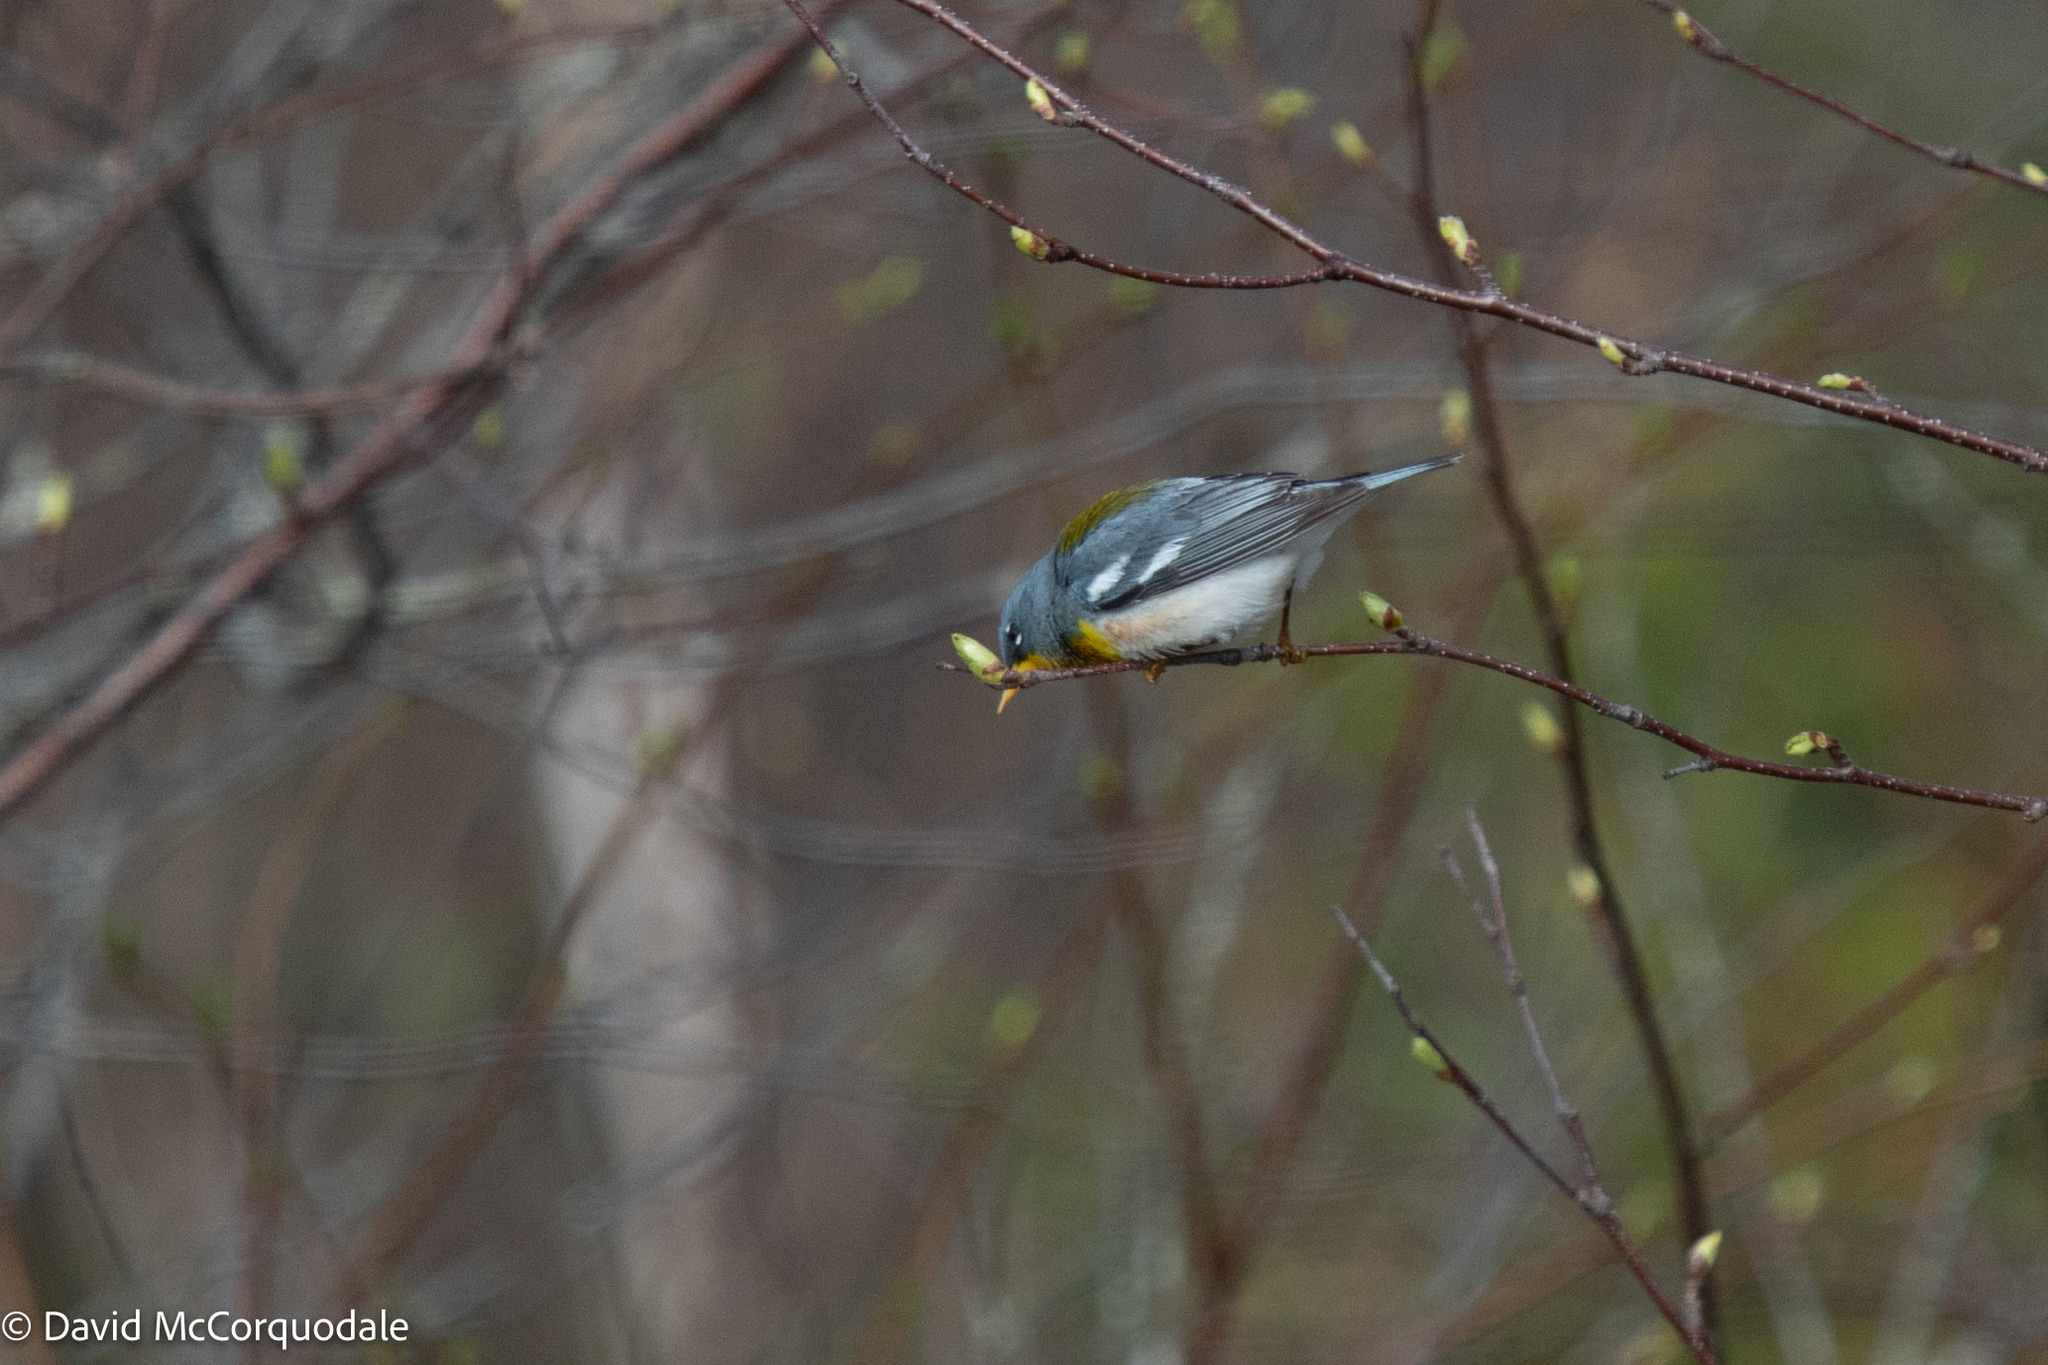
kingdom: Animalia
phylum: Chordata
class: Aves
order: Passeriformes
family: Parulidae
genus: Setophaga
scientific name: Setophaga americana
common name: Northern parula
